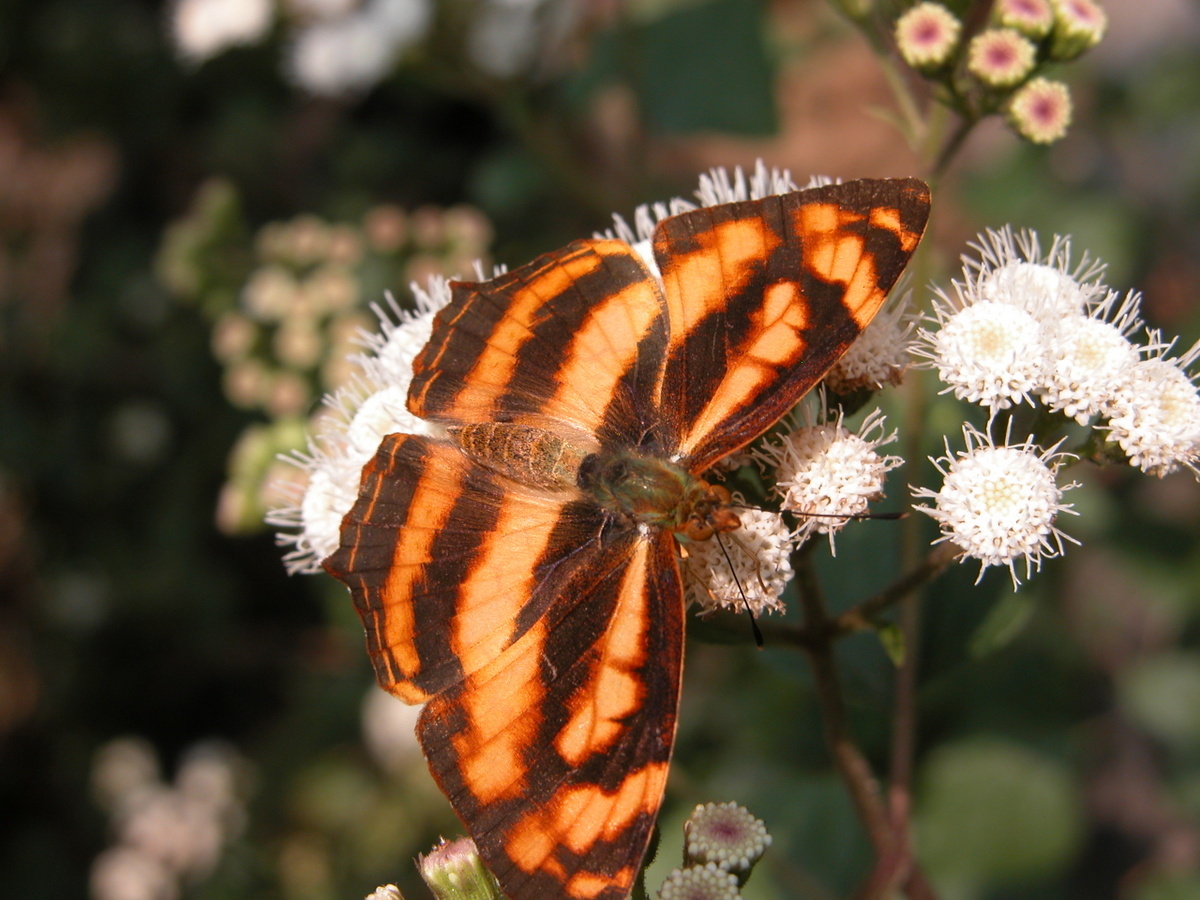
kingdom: Animalia
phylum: Arthropoda
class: Insecta
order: Lepidoptera
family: Nymphalidae
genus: Symbrenthia
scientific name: Symbrenthia hypselis
